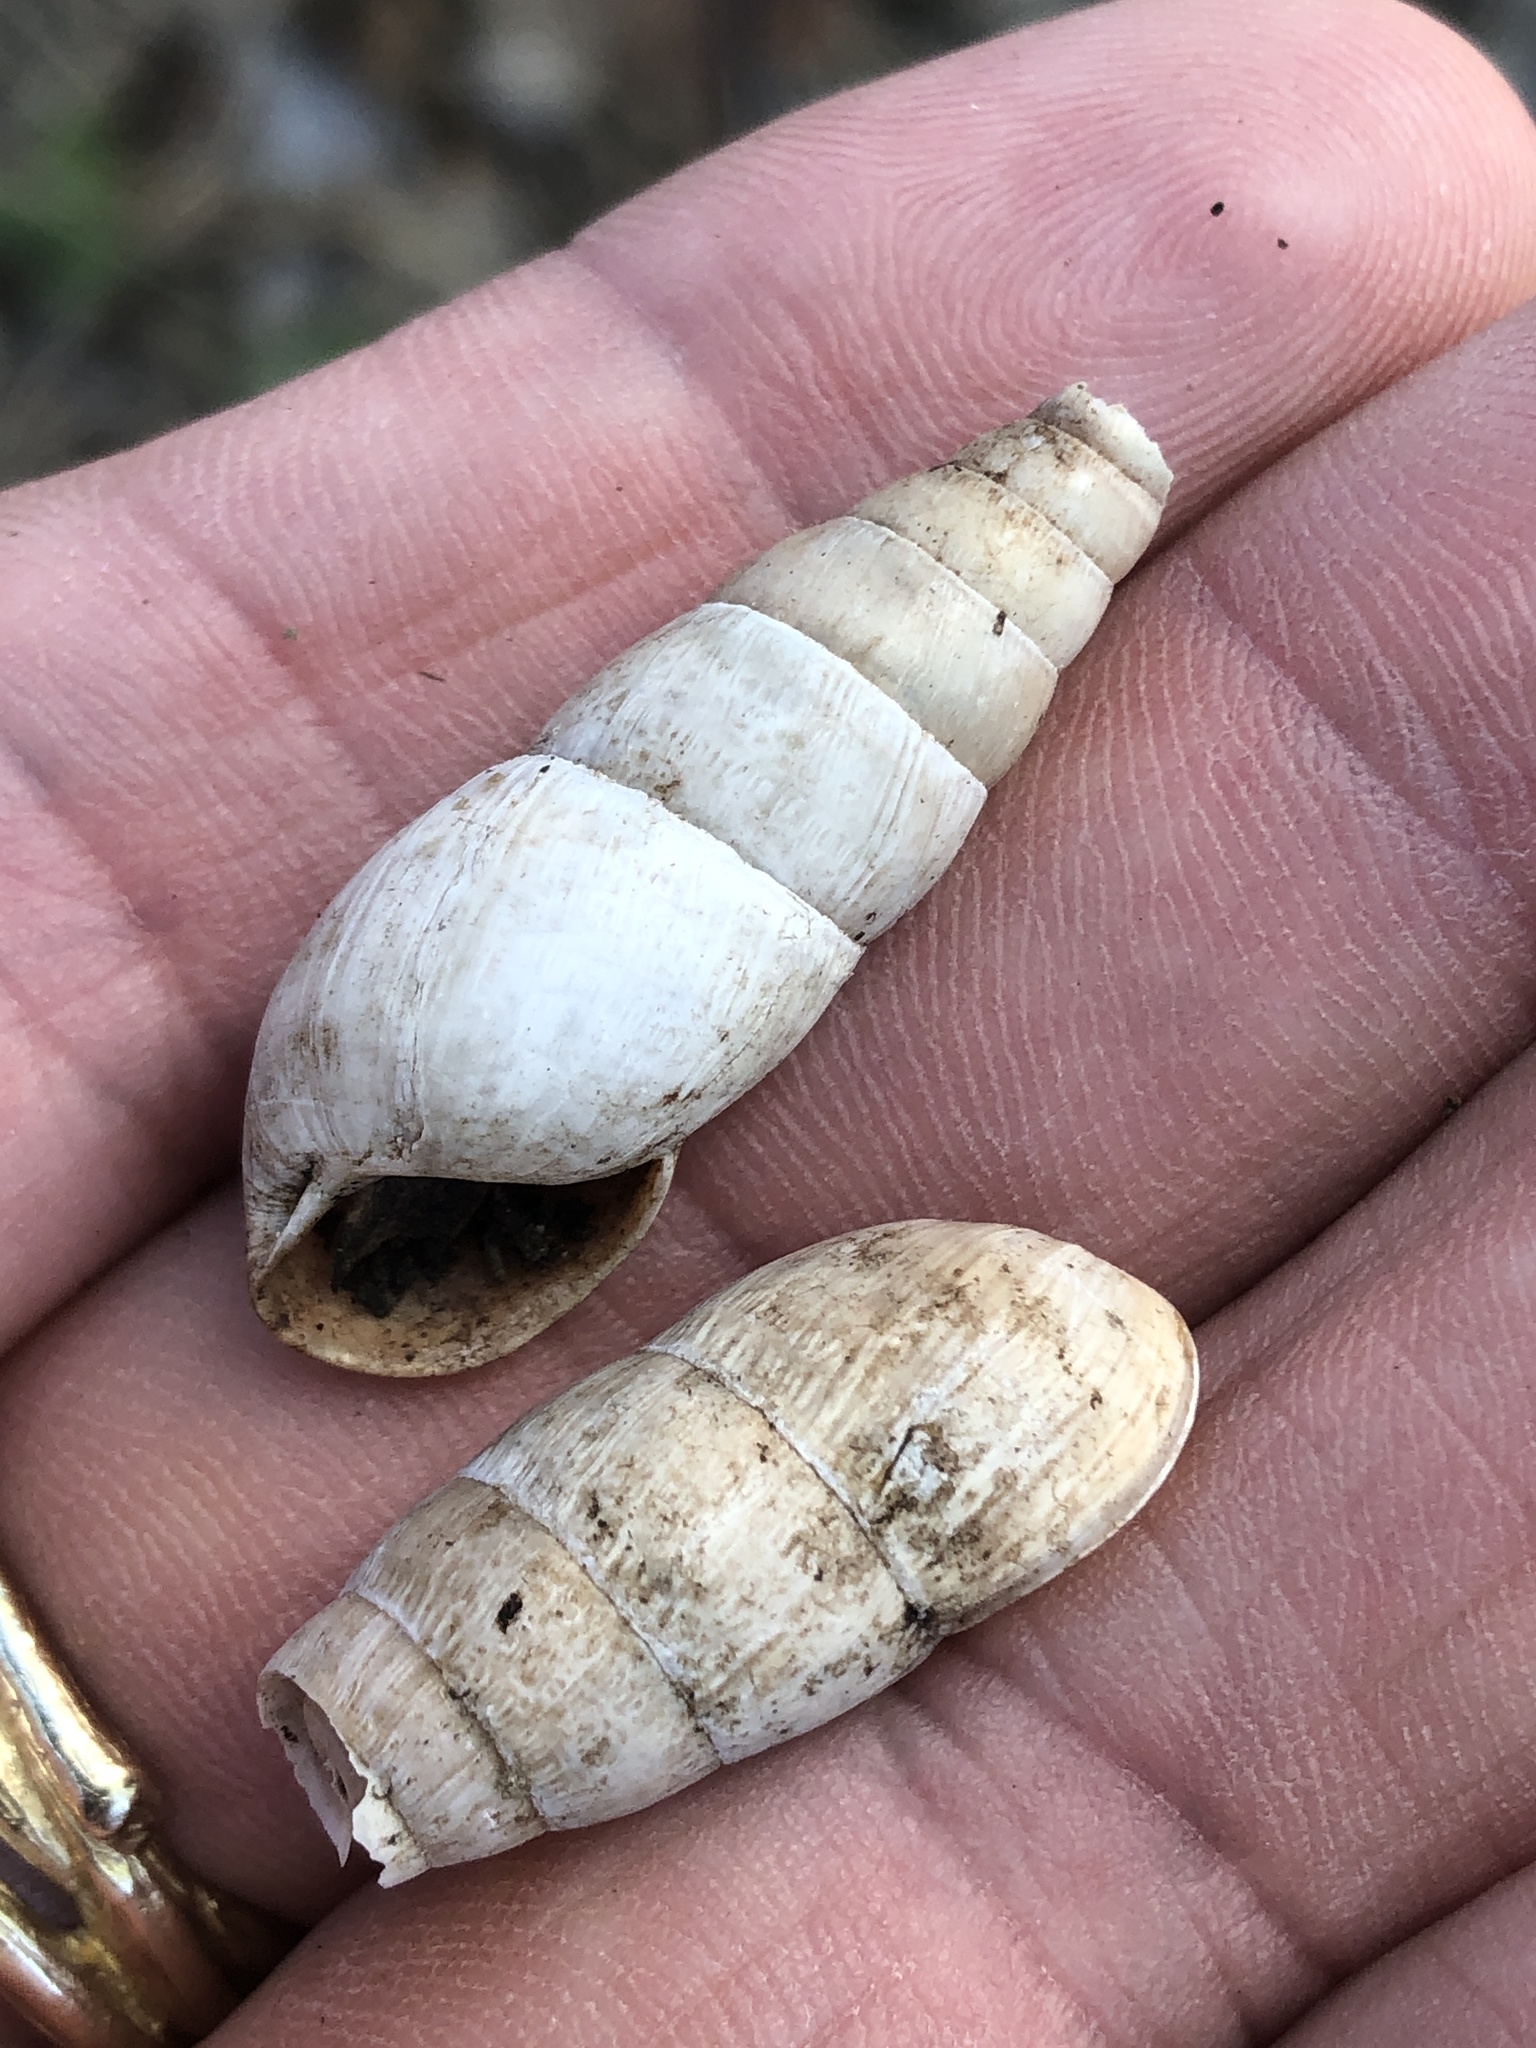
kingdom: Animalia
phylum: Mollusca
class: Gastropoda
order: Stylommatophora
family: Achatinidae
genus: Rumina
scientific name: Rumina decollata
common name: Decollate snail
